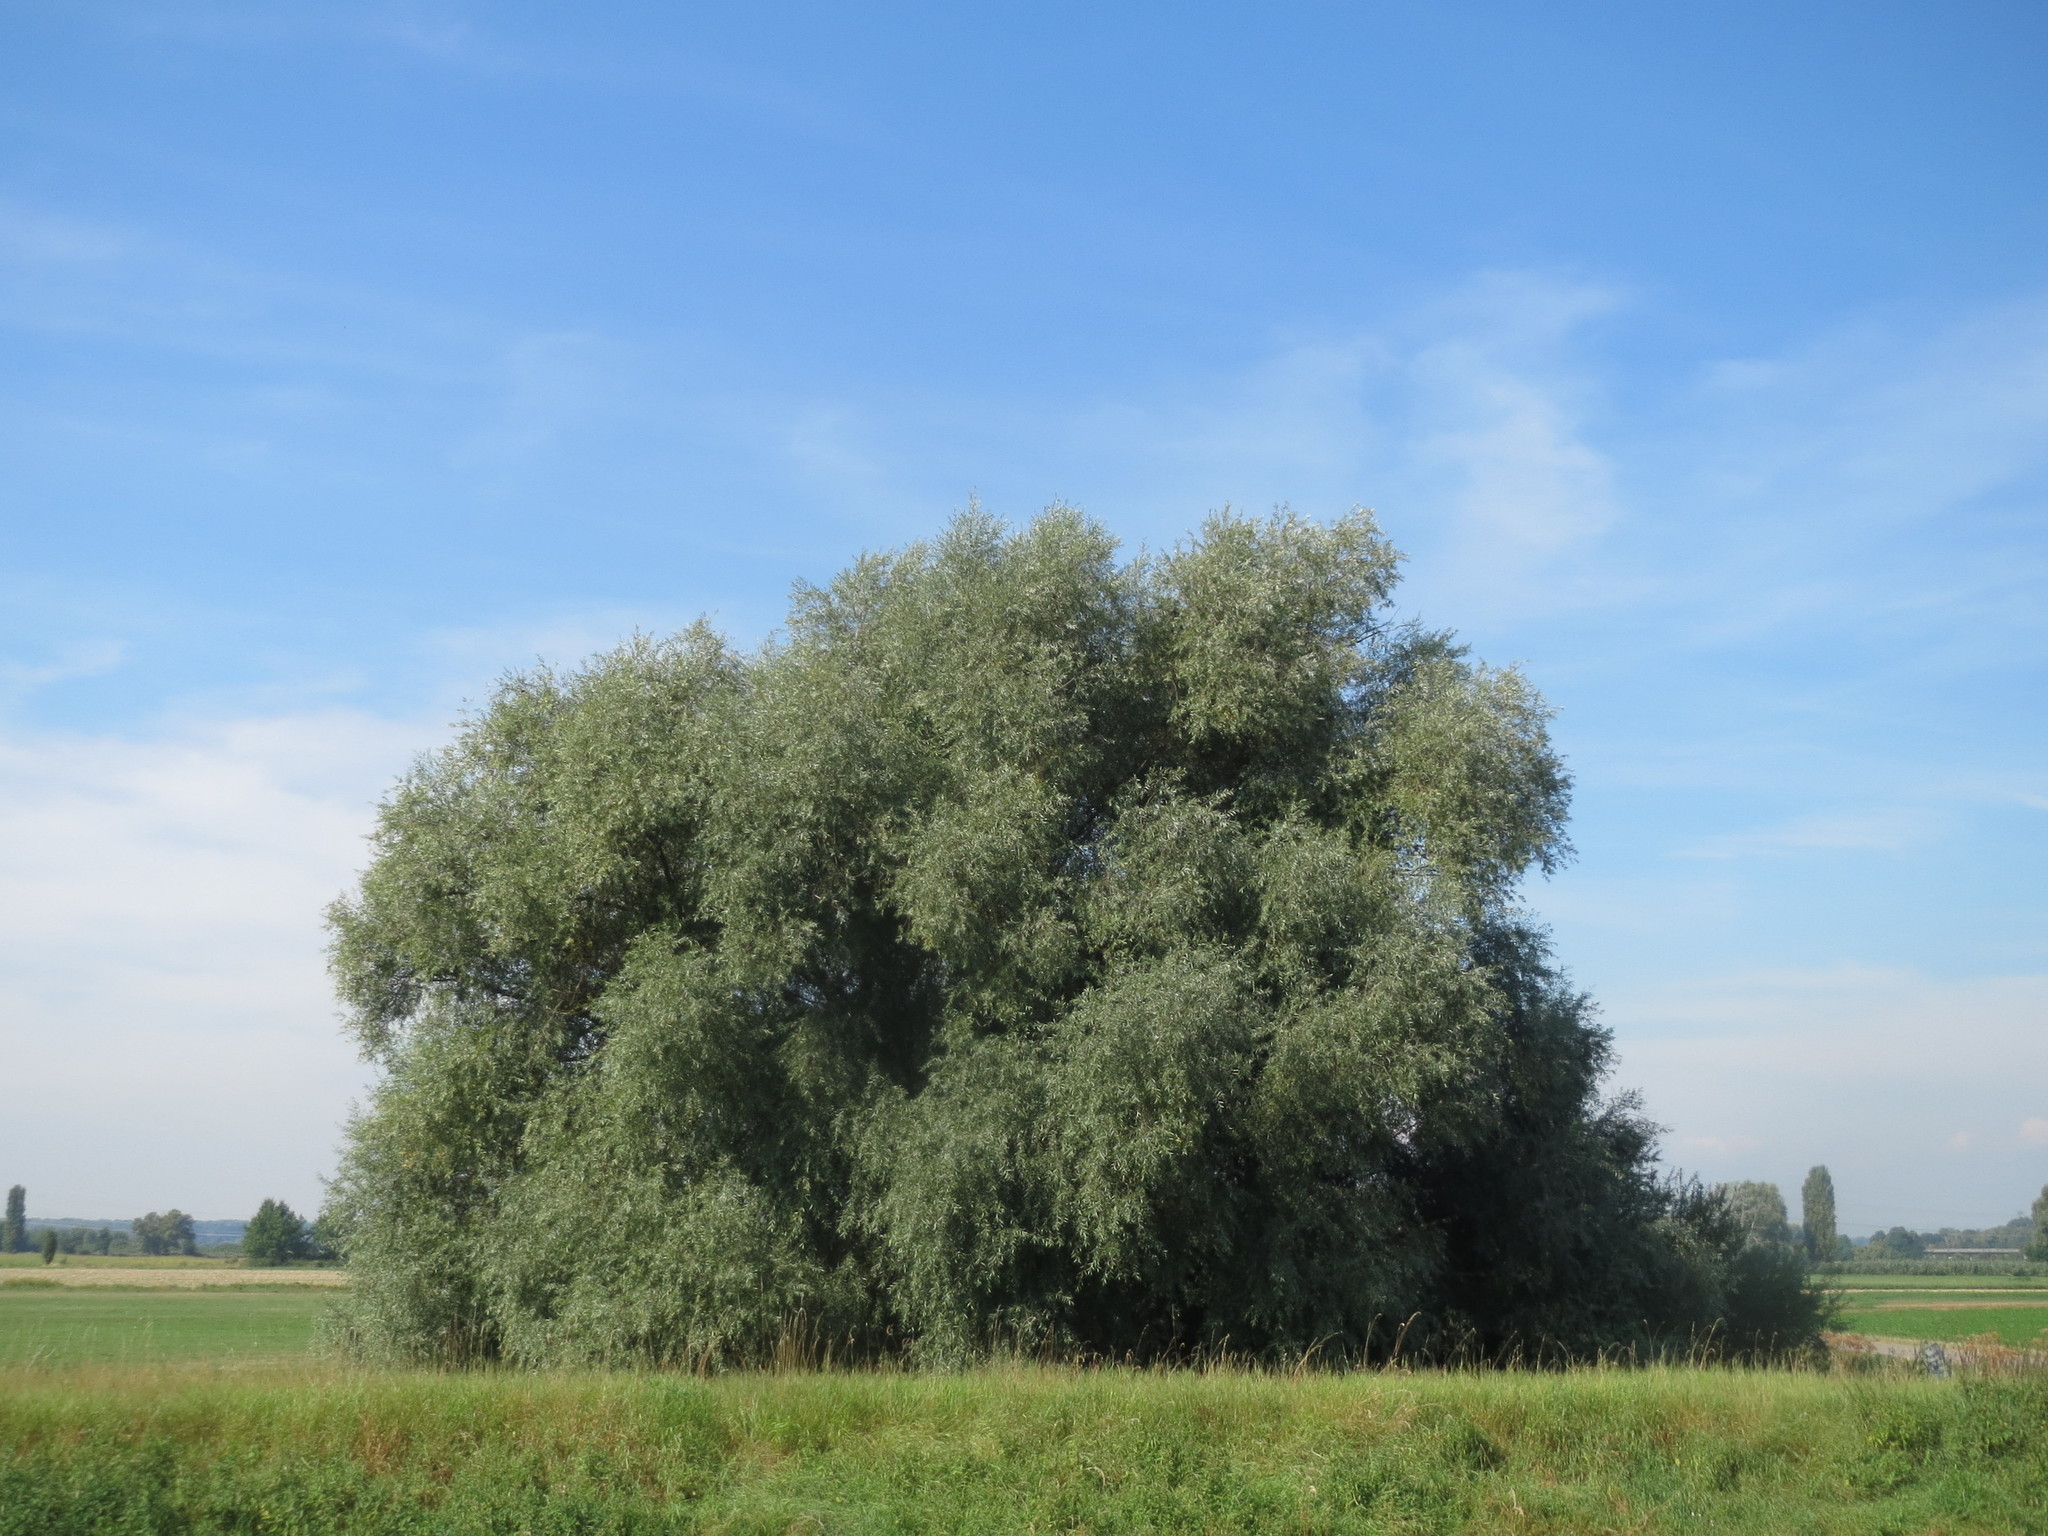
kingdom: Plantae
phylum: Tracheophyta
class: Magnoliopsida
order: Malpighiales
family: Salicaceae
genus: Salix
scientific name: Salix alba
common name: White willow
